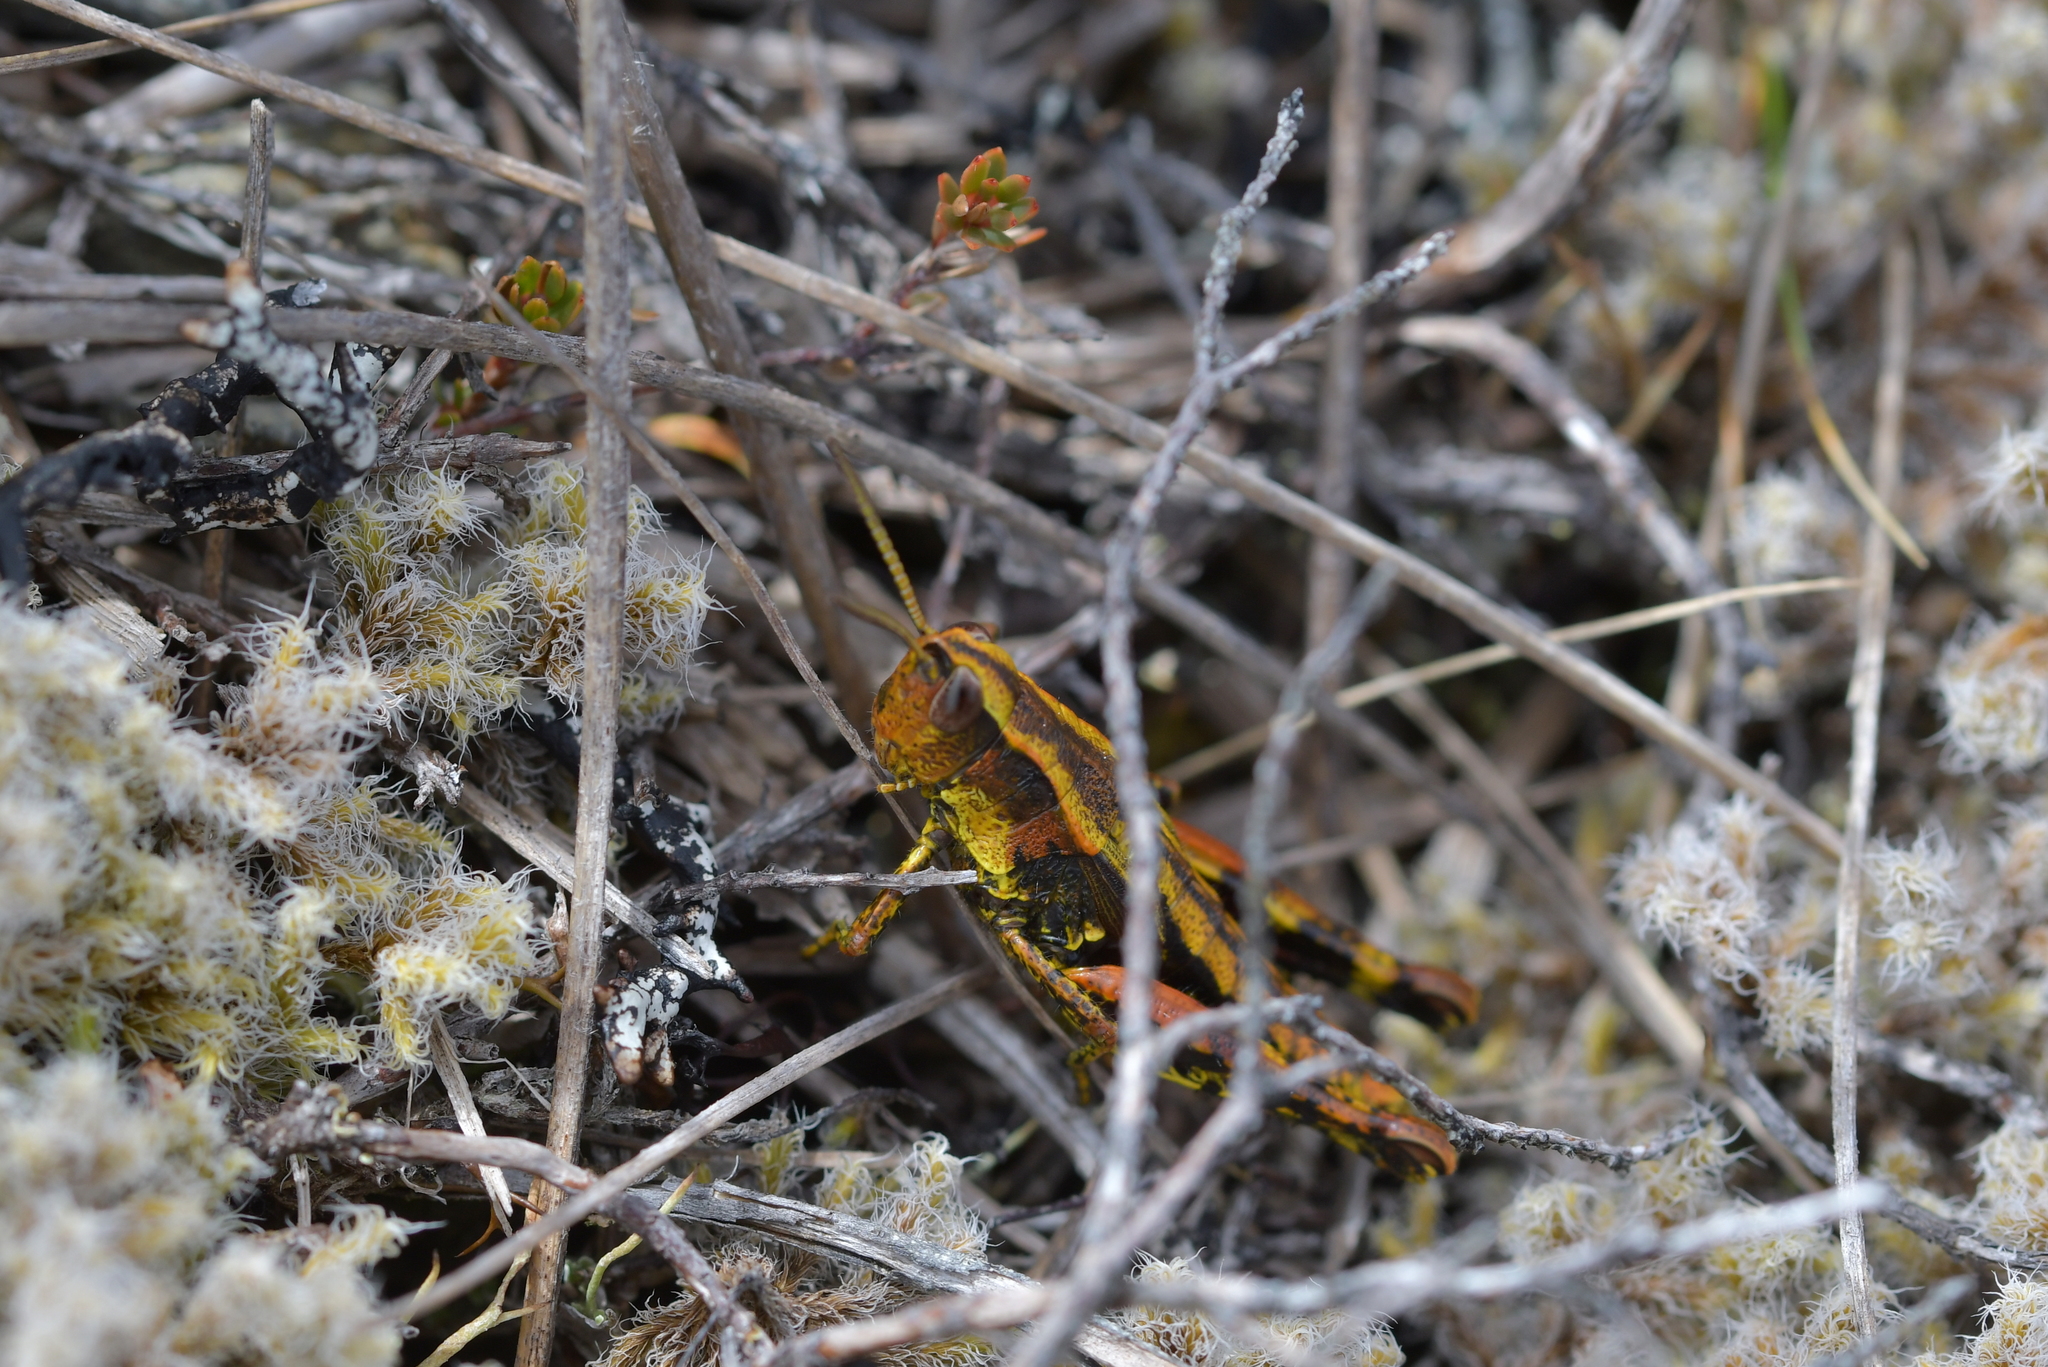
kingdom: Animalia
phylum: Arthropoda
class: Insecta
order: Orthoptera
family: Acrididae
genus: Sigaus
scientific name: Sigaus piliferus
